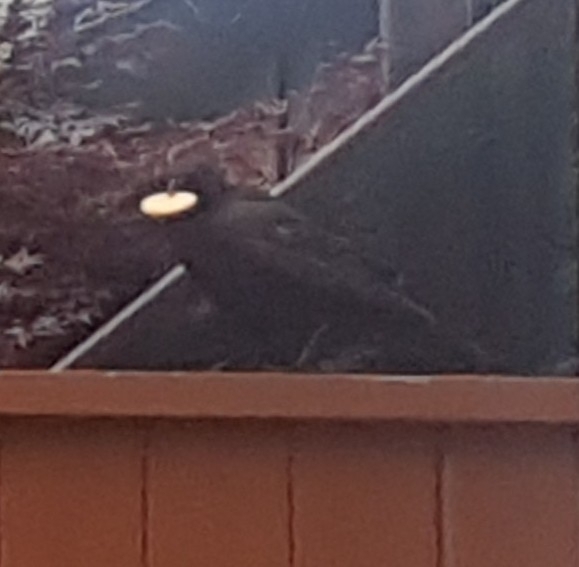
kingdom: Animalia
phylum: Chordata
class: Aves
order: Passeriformes
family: Corvidae
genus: Corvus
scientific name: Corvus brachyrhynchos
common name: American crow
